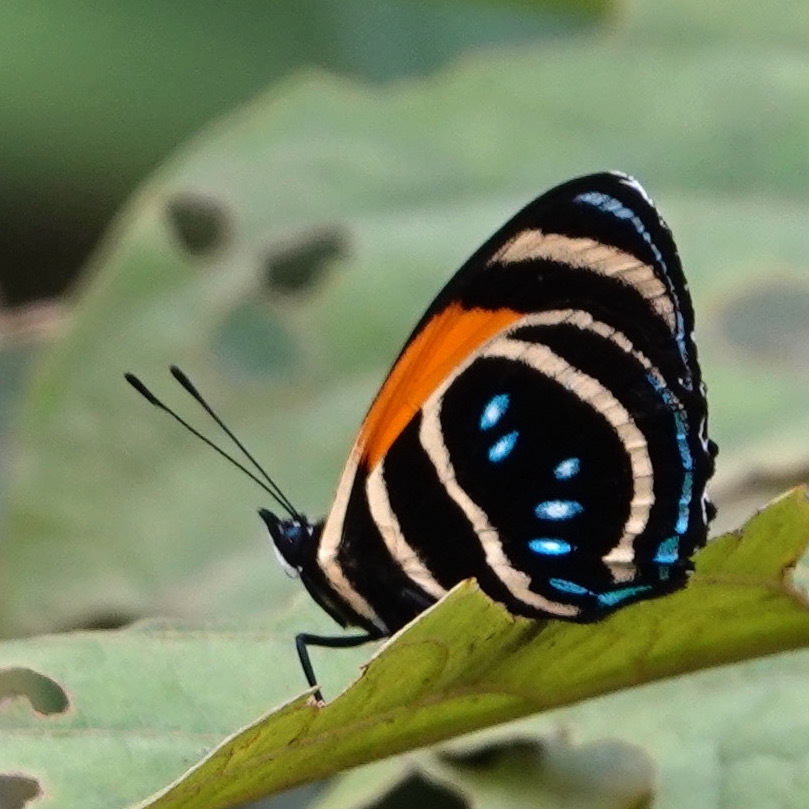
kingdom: Animalia
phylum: Arthropoda
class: Insecta
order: Lepidoptera
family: Nymphalidae
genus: Catagramma
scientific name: Catagramma Callicore lyca
